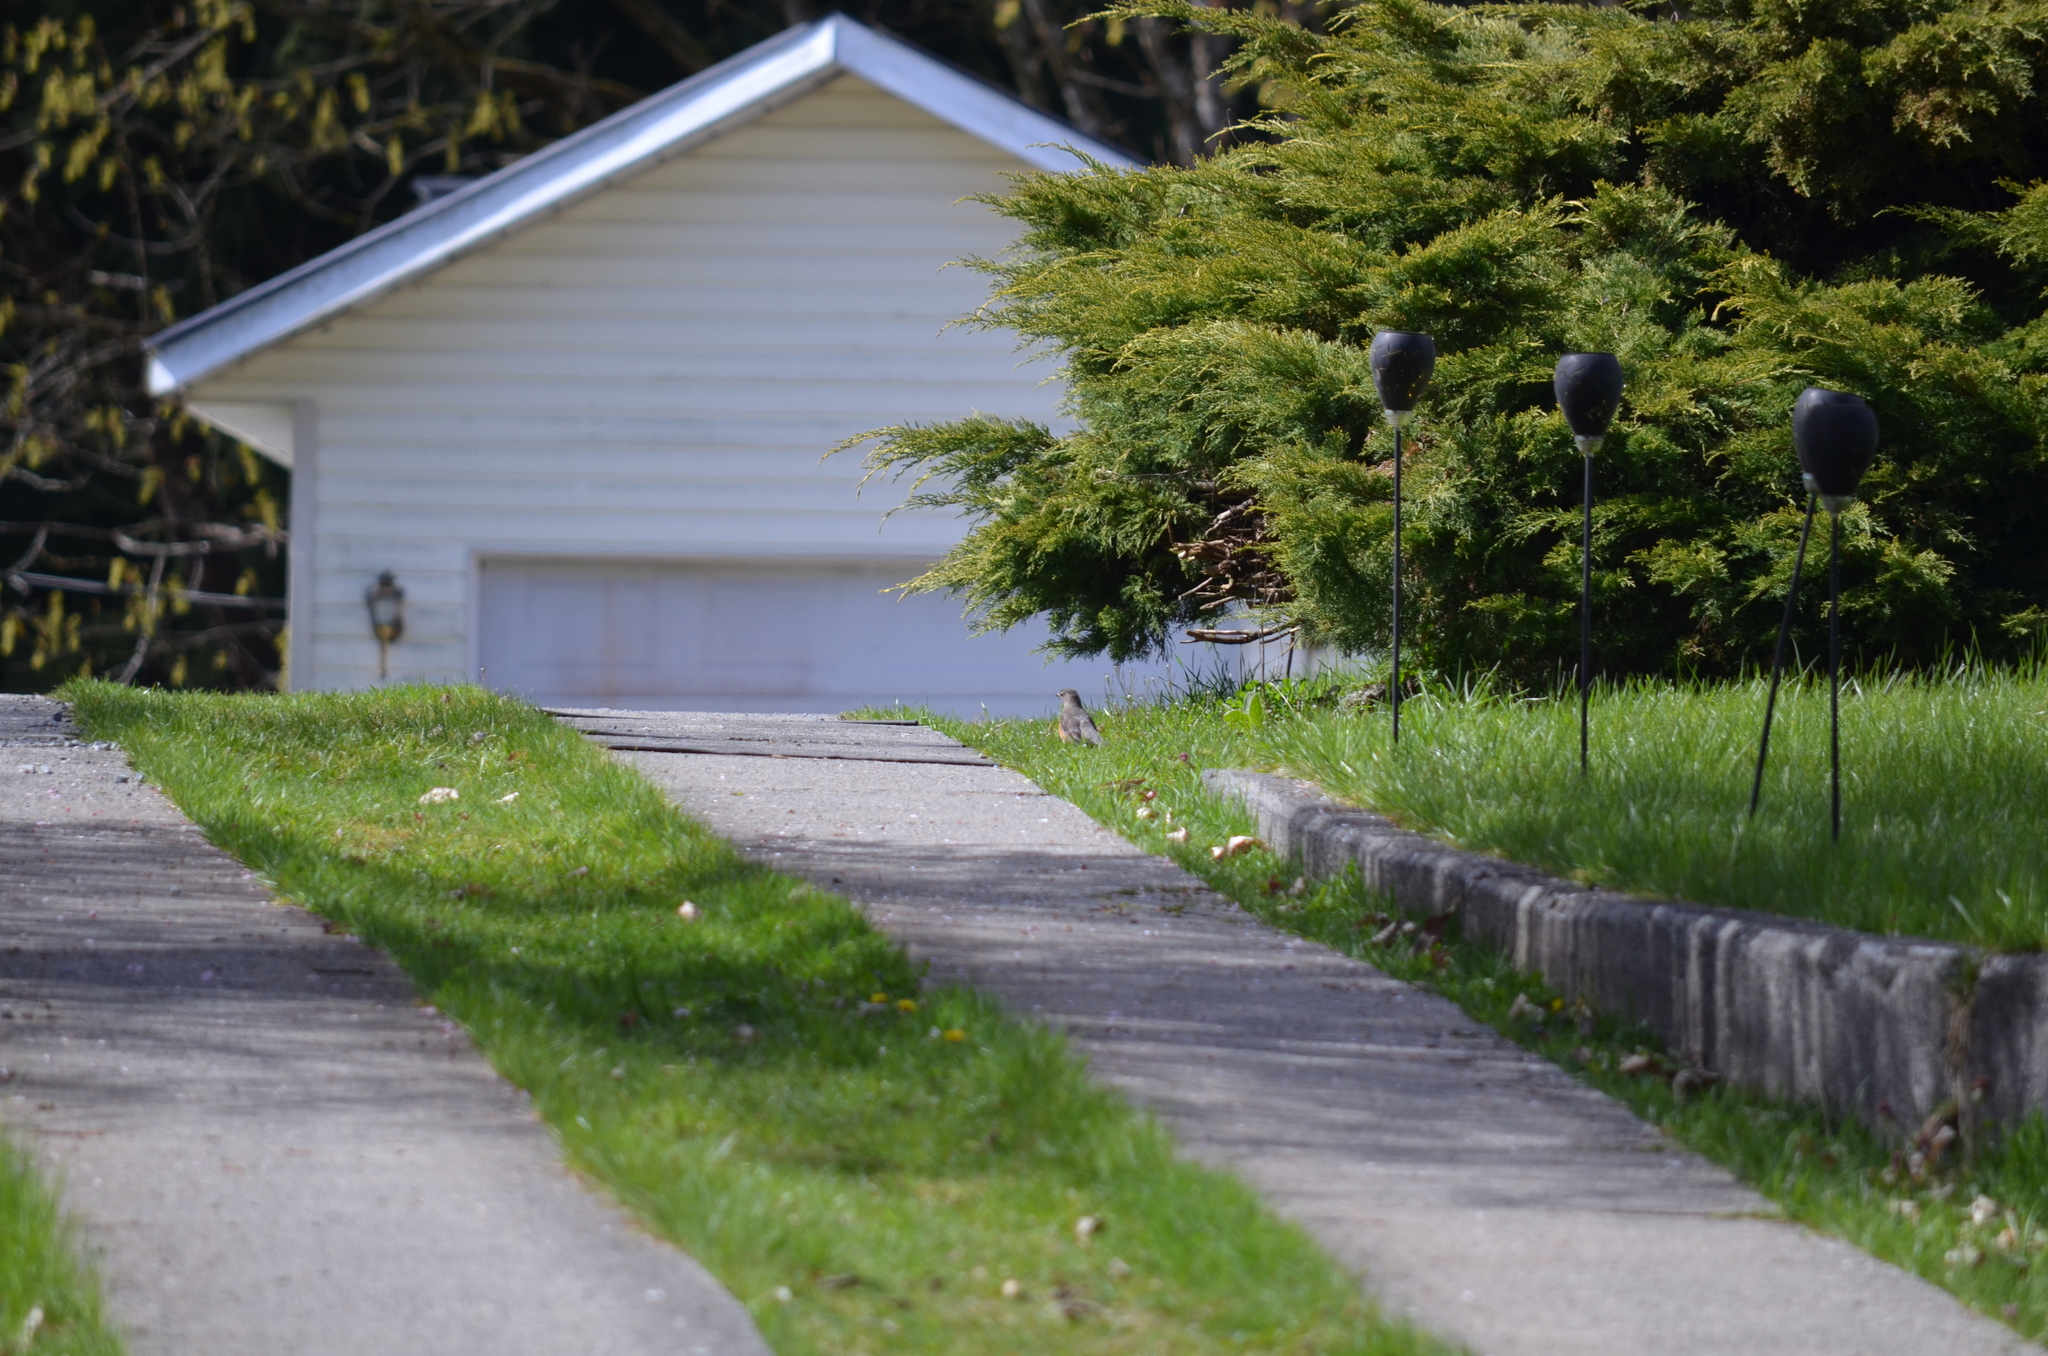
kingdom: Animalia
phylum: Chordata
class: Aves
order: Passeriformes
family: Turdidae
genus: Turdus
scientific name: Turdus migratorius
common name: American robin
